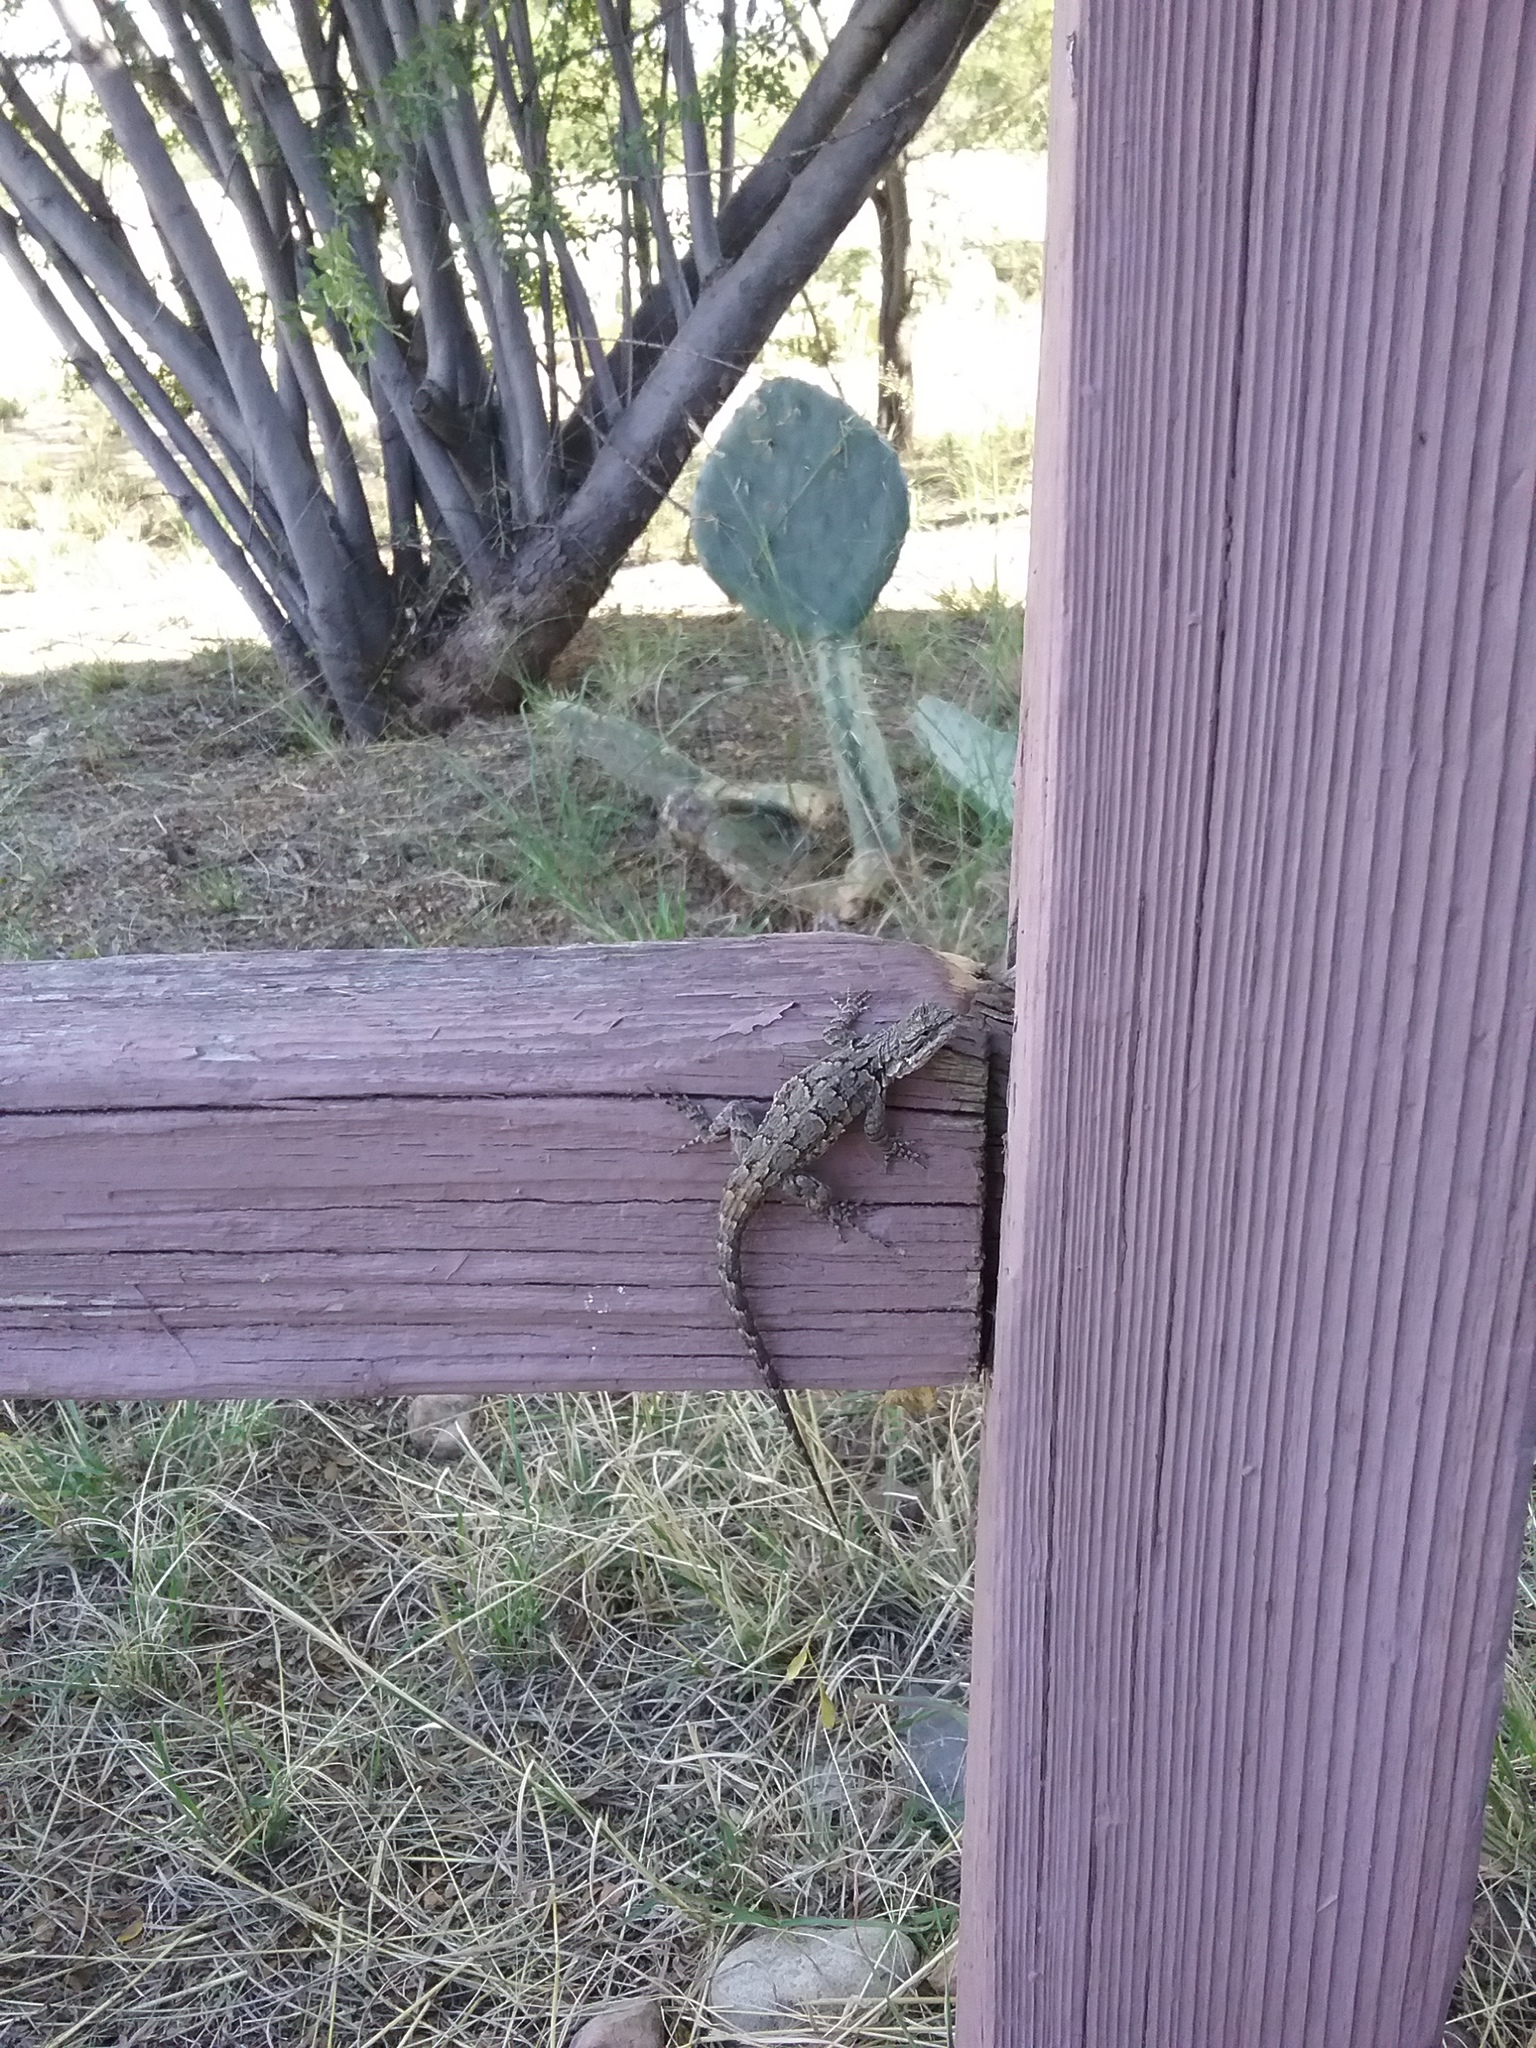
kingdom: Animalia
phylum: Chordata
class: Squamata
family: Phrynosomatidae
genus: Urosaurus
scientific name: Urosaurus ornatus
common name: Ornate tree lizard
